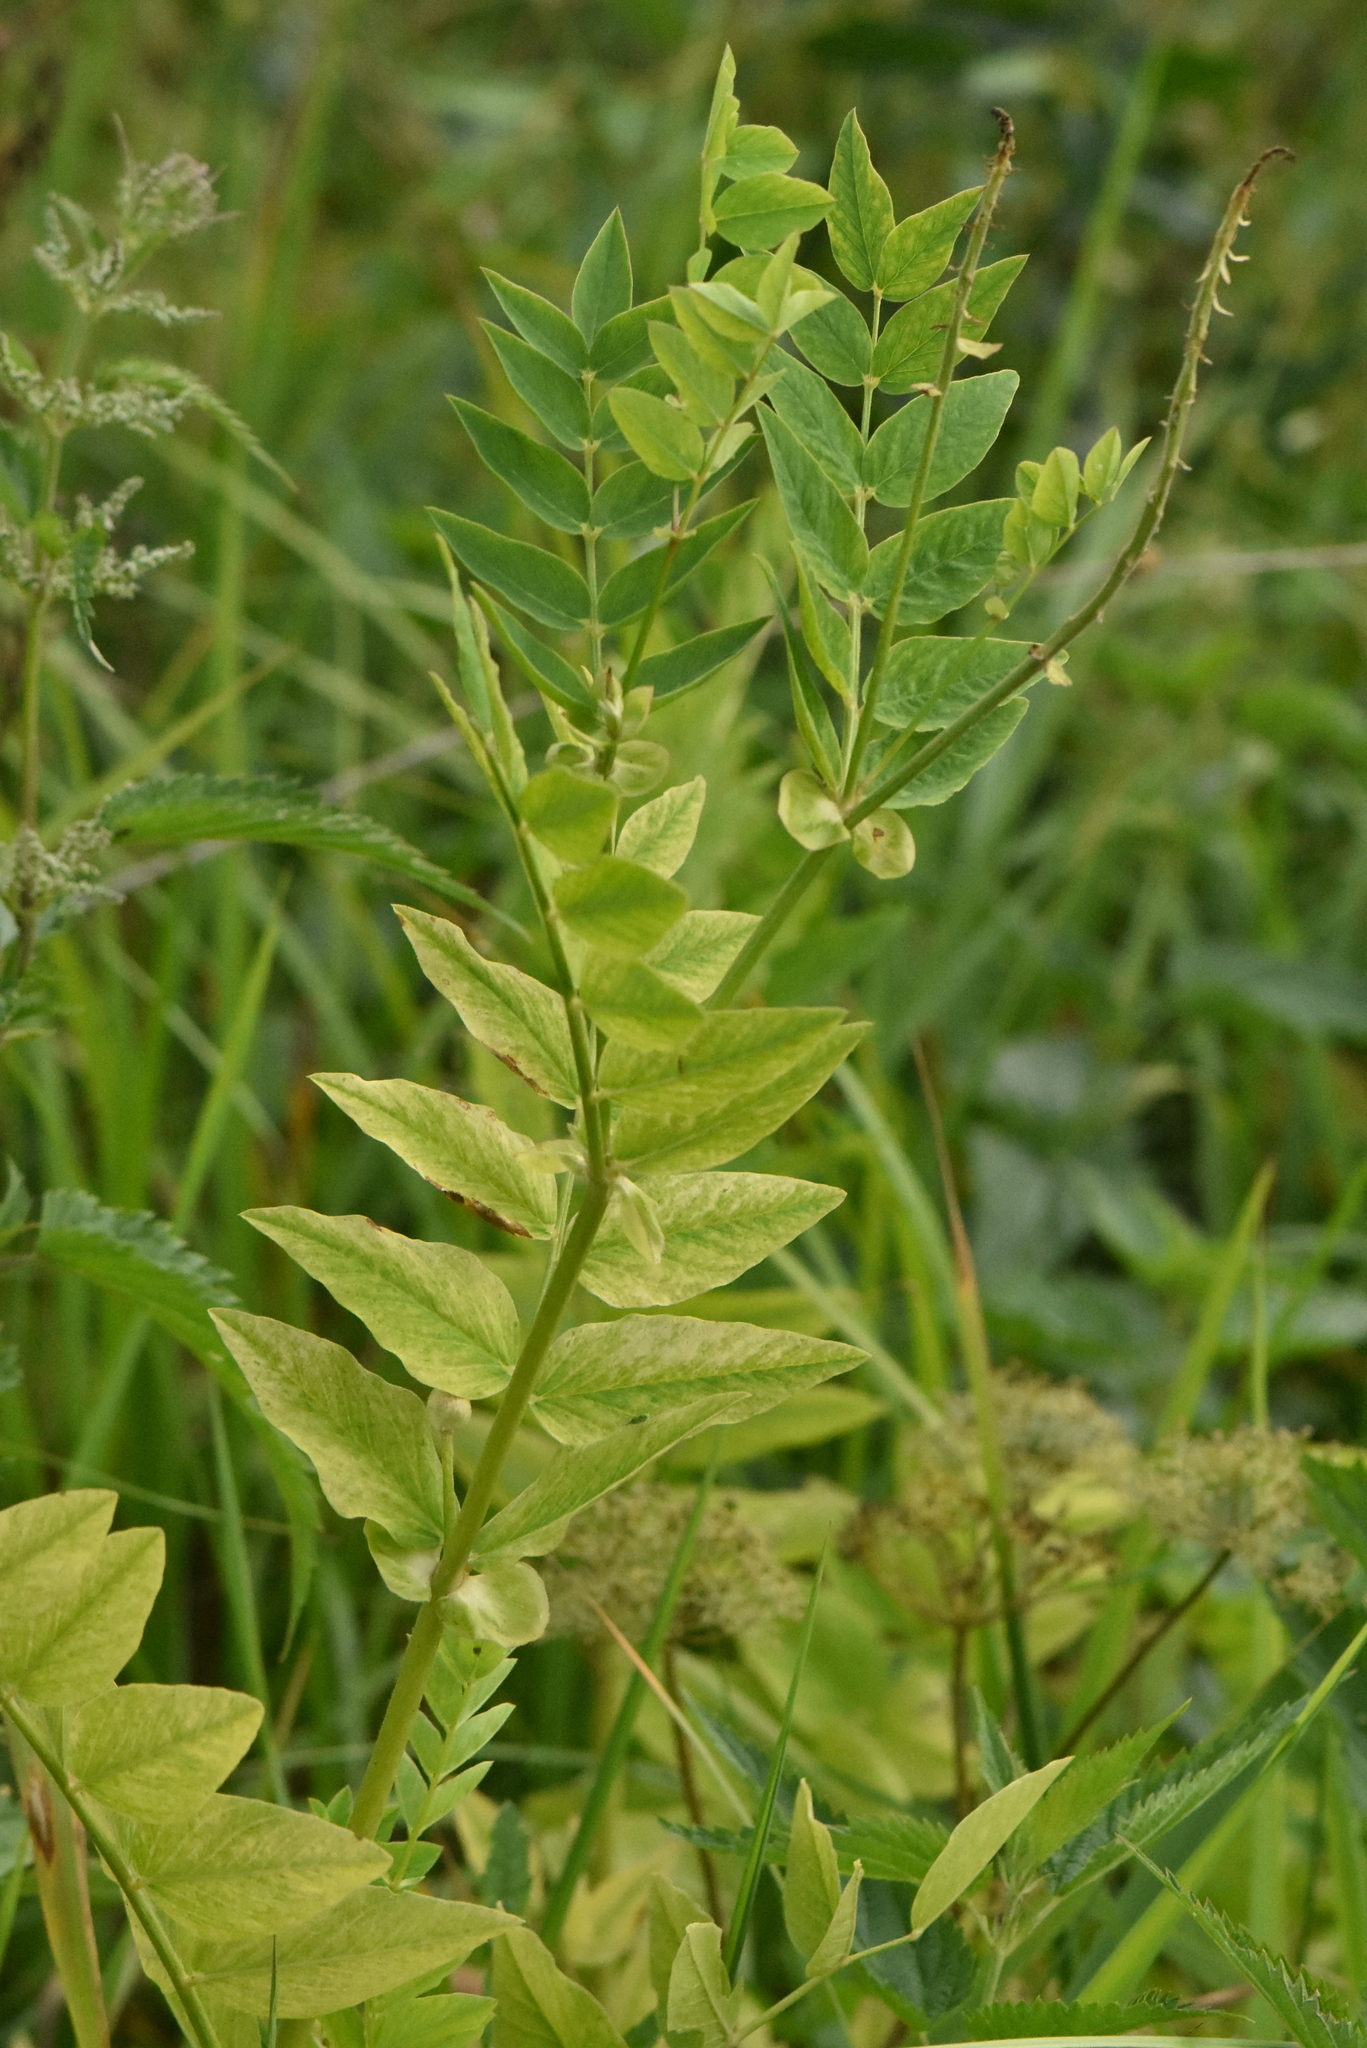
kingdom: Plantae
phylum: Tracheophyta
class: Magnoliopsida
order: Fabales
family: Fabaceae
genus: Galega
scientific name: Galega orientalis
